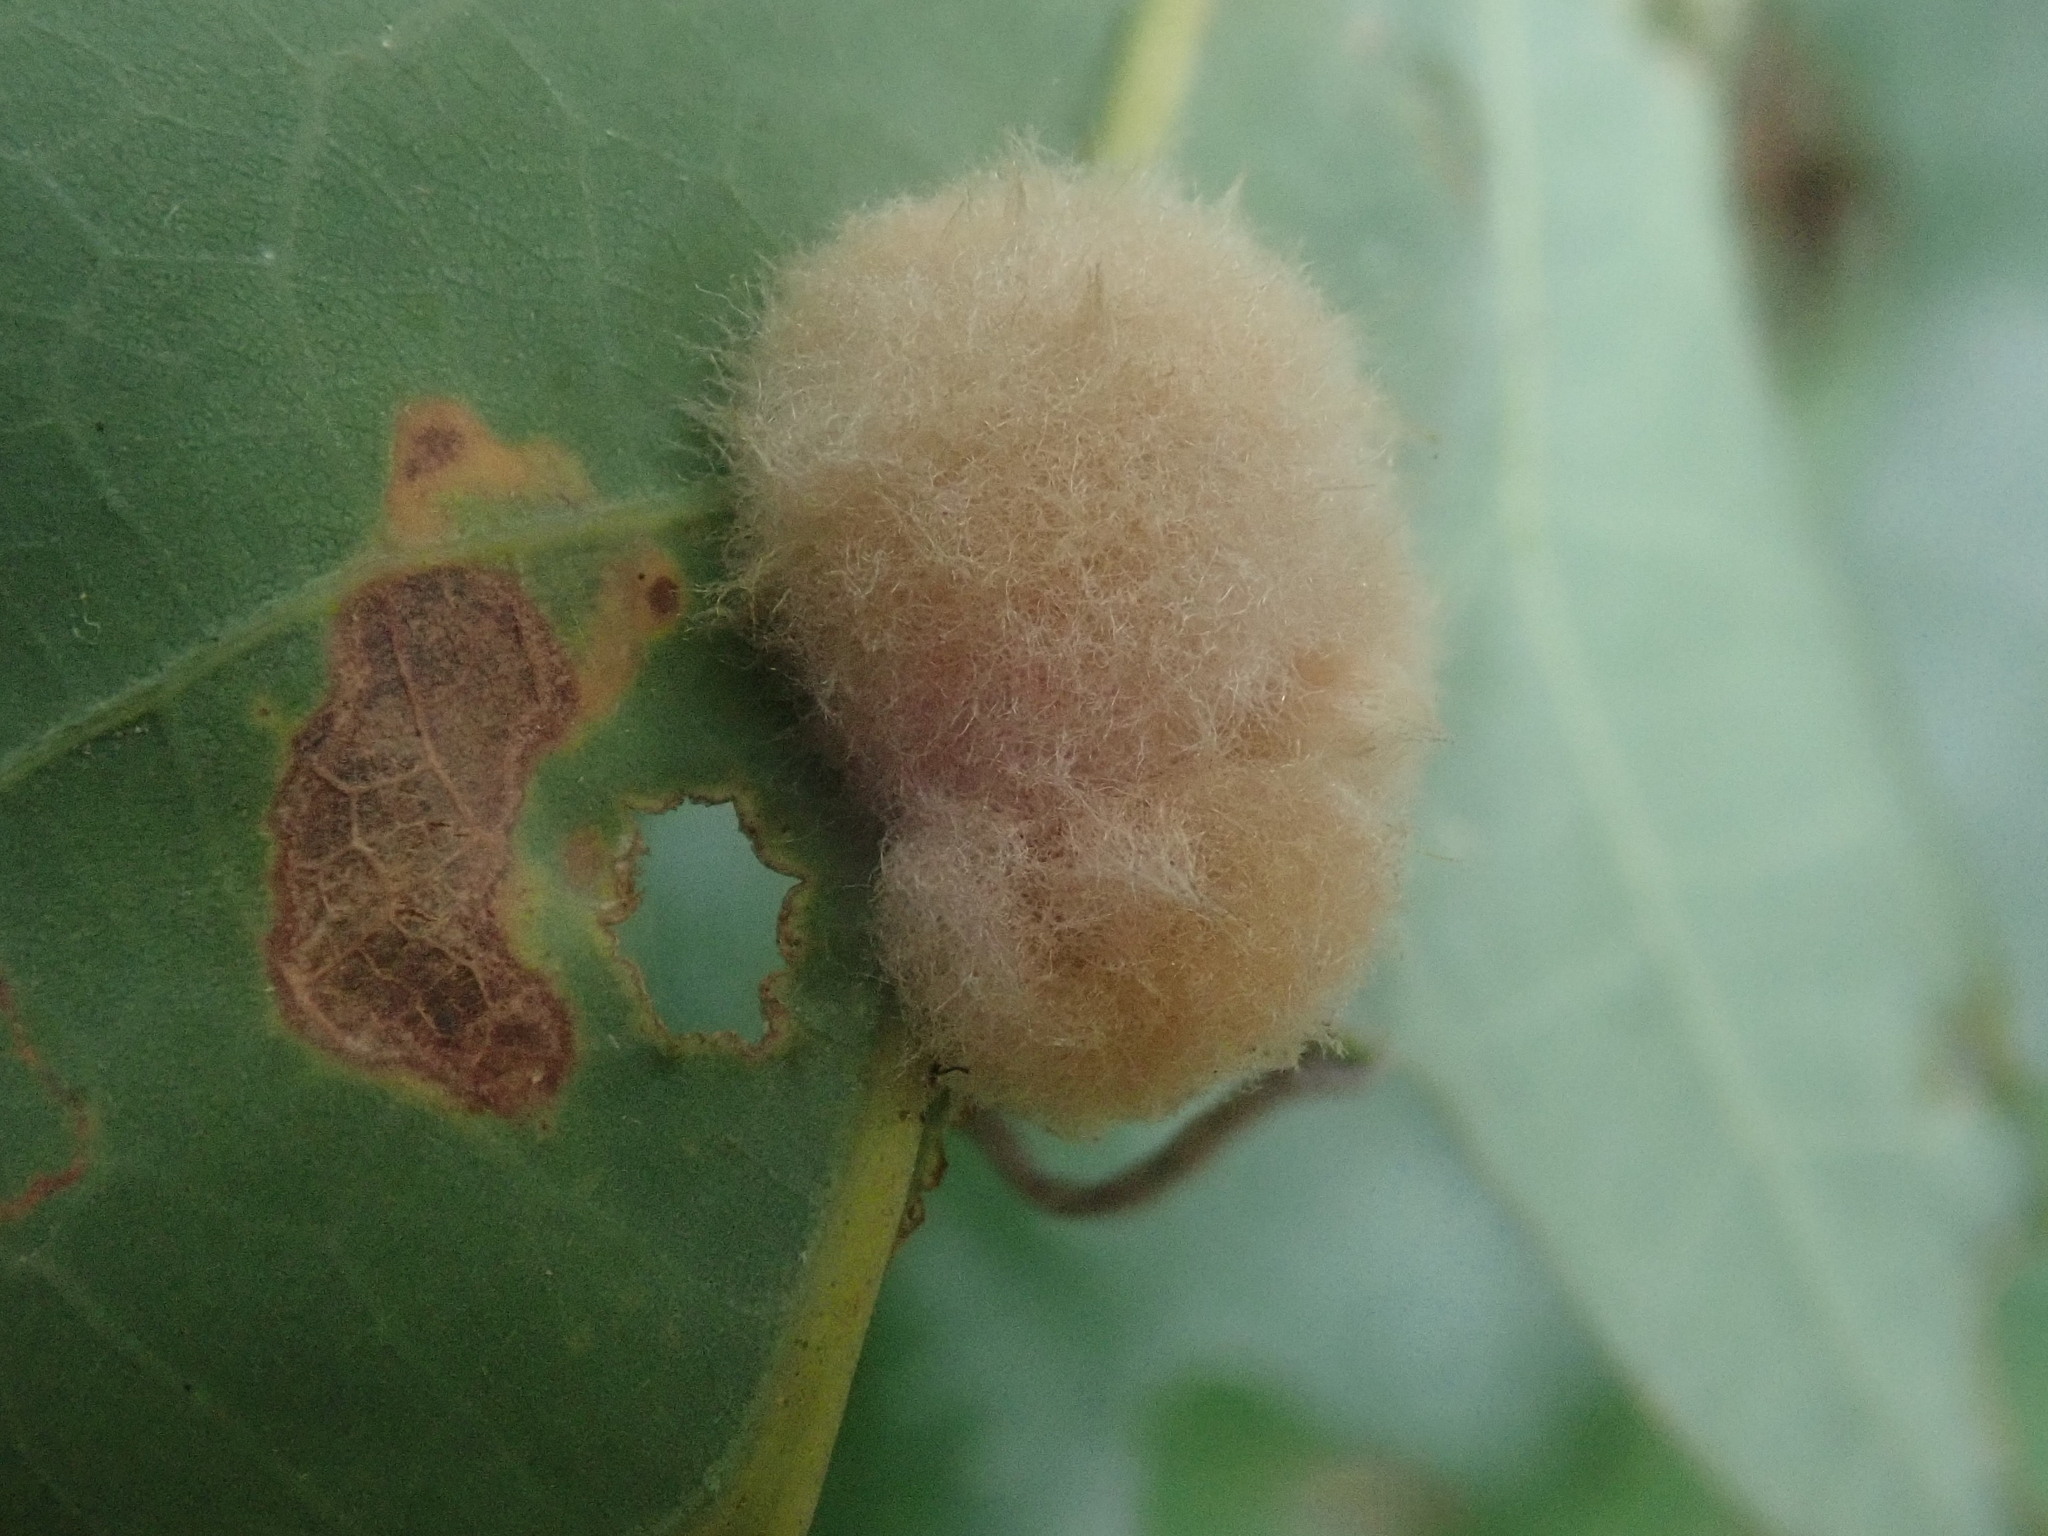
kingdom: Animalia
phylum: Arthropoda
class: Insecta
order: Hymenoptera
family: Cynipidae
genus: Andricus
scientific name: Andricus quercusflocci
